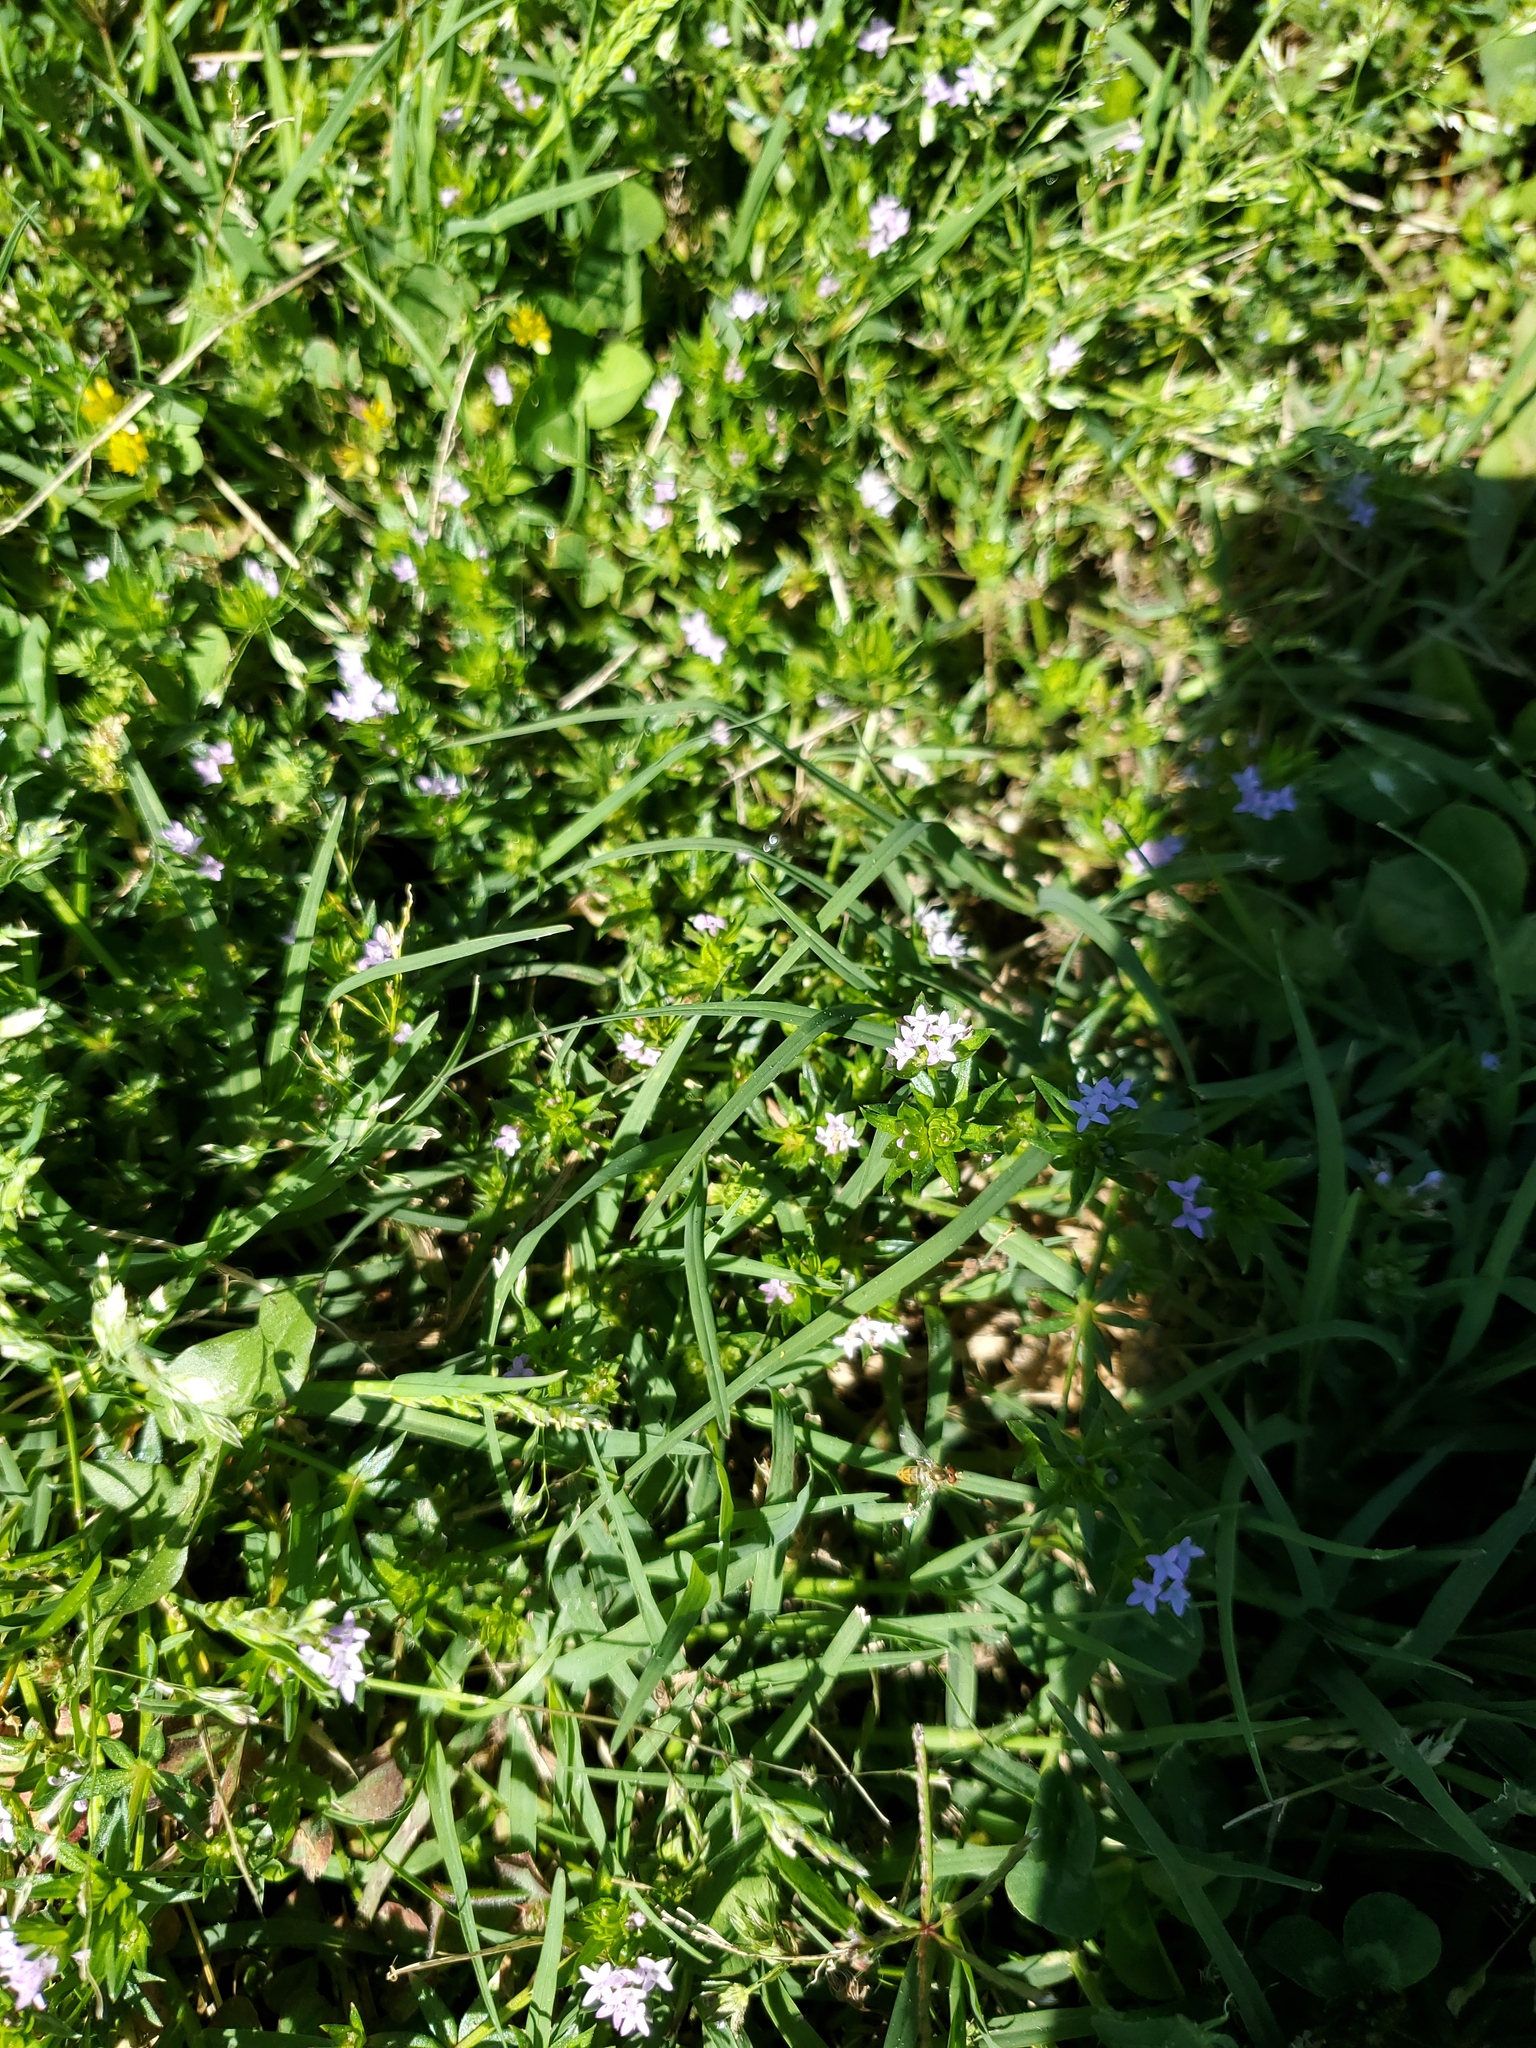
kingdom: Plantae
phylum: Tracheophyta
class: Magnoliopsida
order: Gentianales
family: Rubiaceae
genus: Sherardia
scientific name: Sherardia arvensis
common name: Field madder
